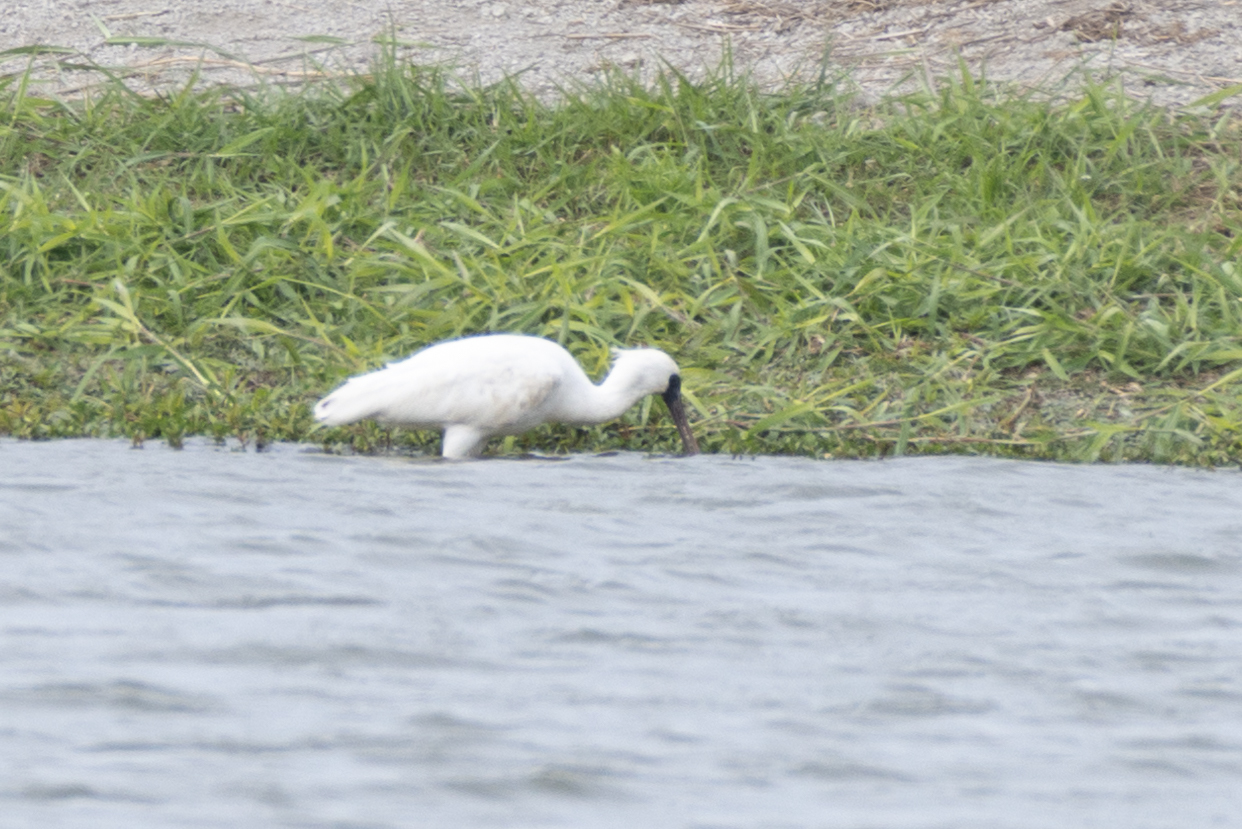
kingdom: Animalia
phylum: Chordata
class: Aves
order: Pelecaniformes
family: Threskiornithidae
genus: Platalea
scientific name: Platalea minor
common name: Black-faced spoonbill
